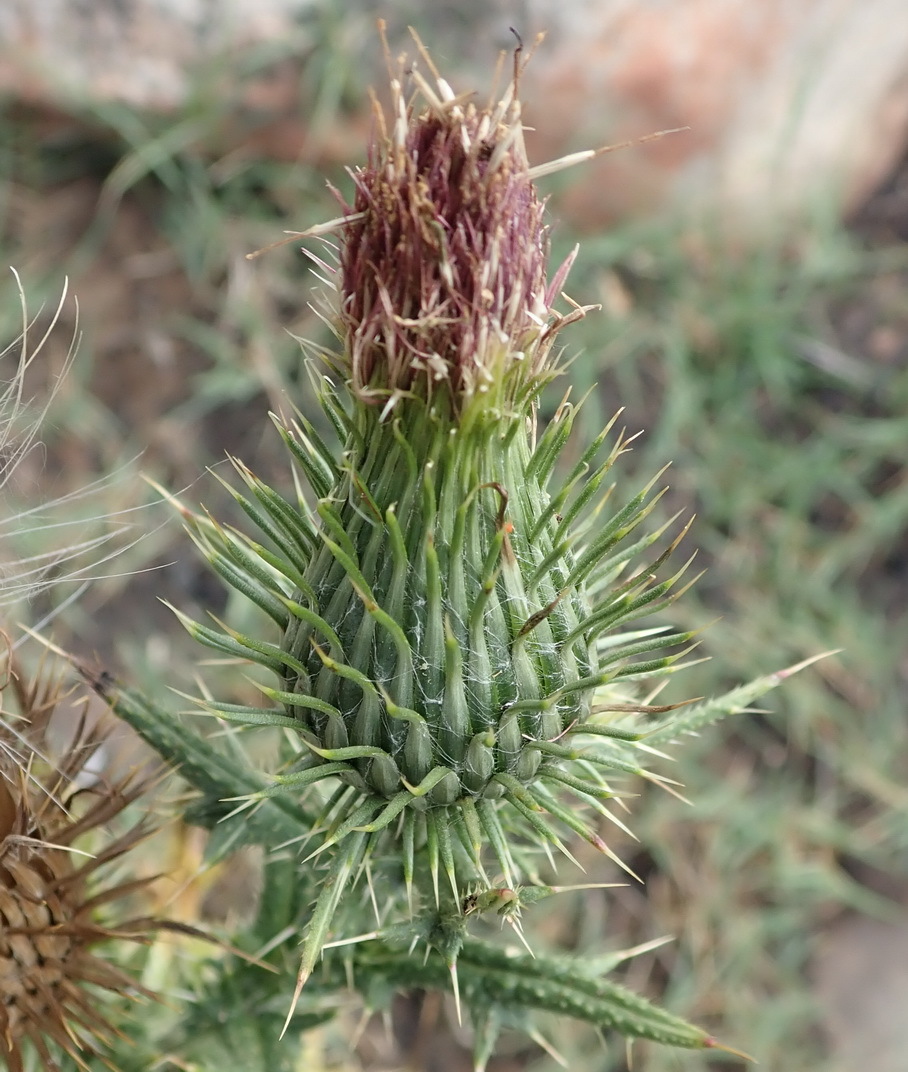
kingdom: Plantae
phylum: Tracheophyta
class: Magnoliopsida
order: Asterales
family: Asteraceae
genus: Cirsium
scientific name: Cirsium vulgare
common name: Bull thistle
